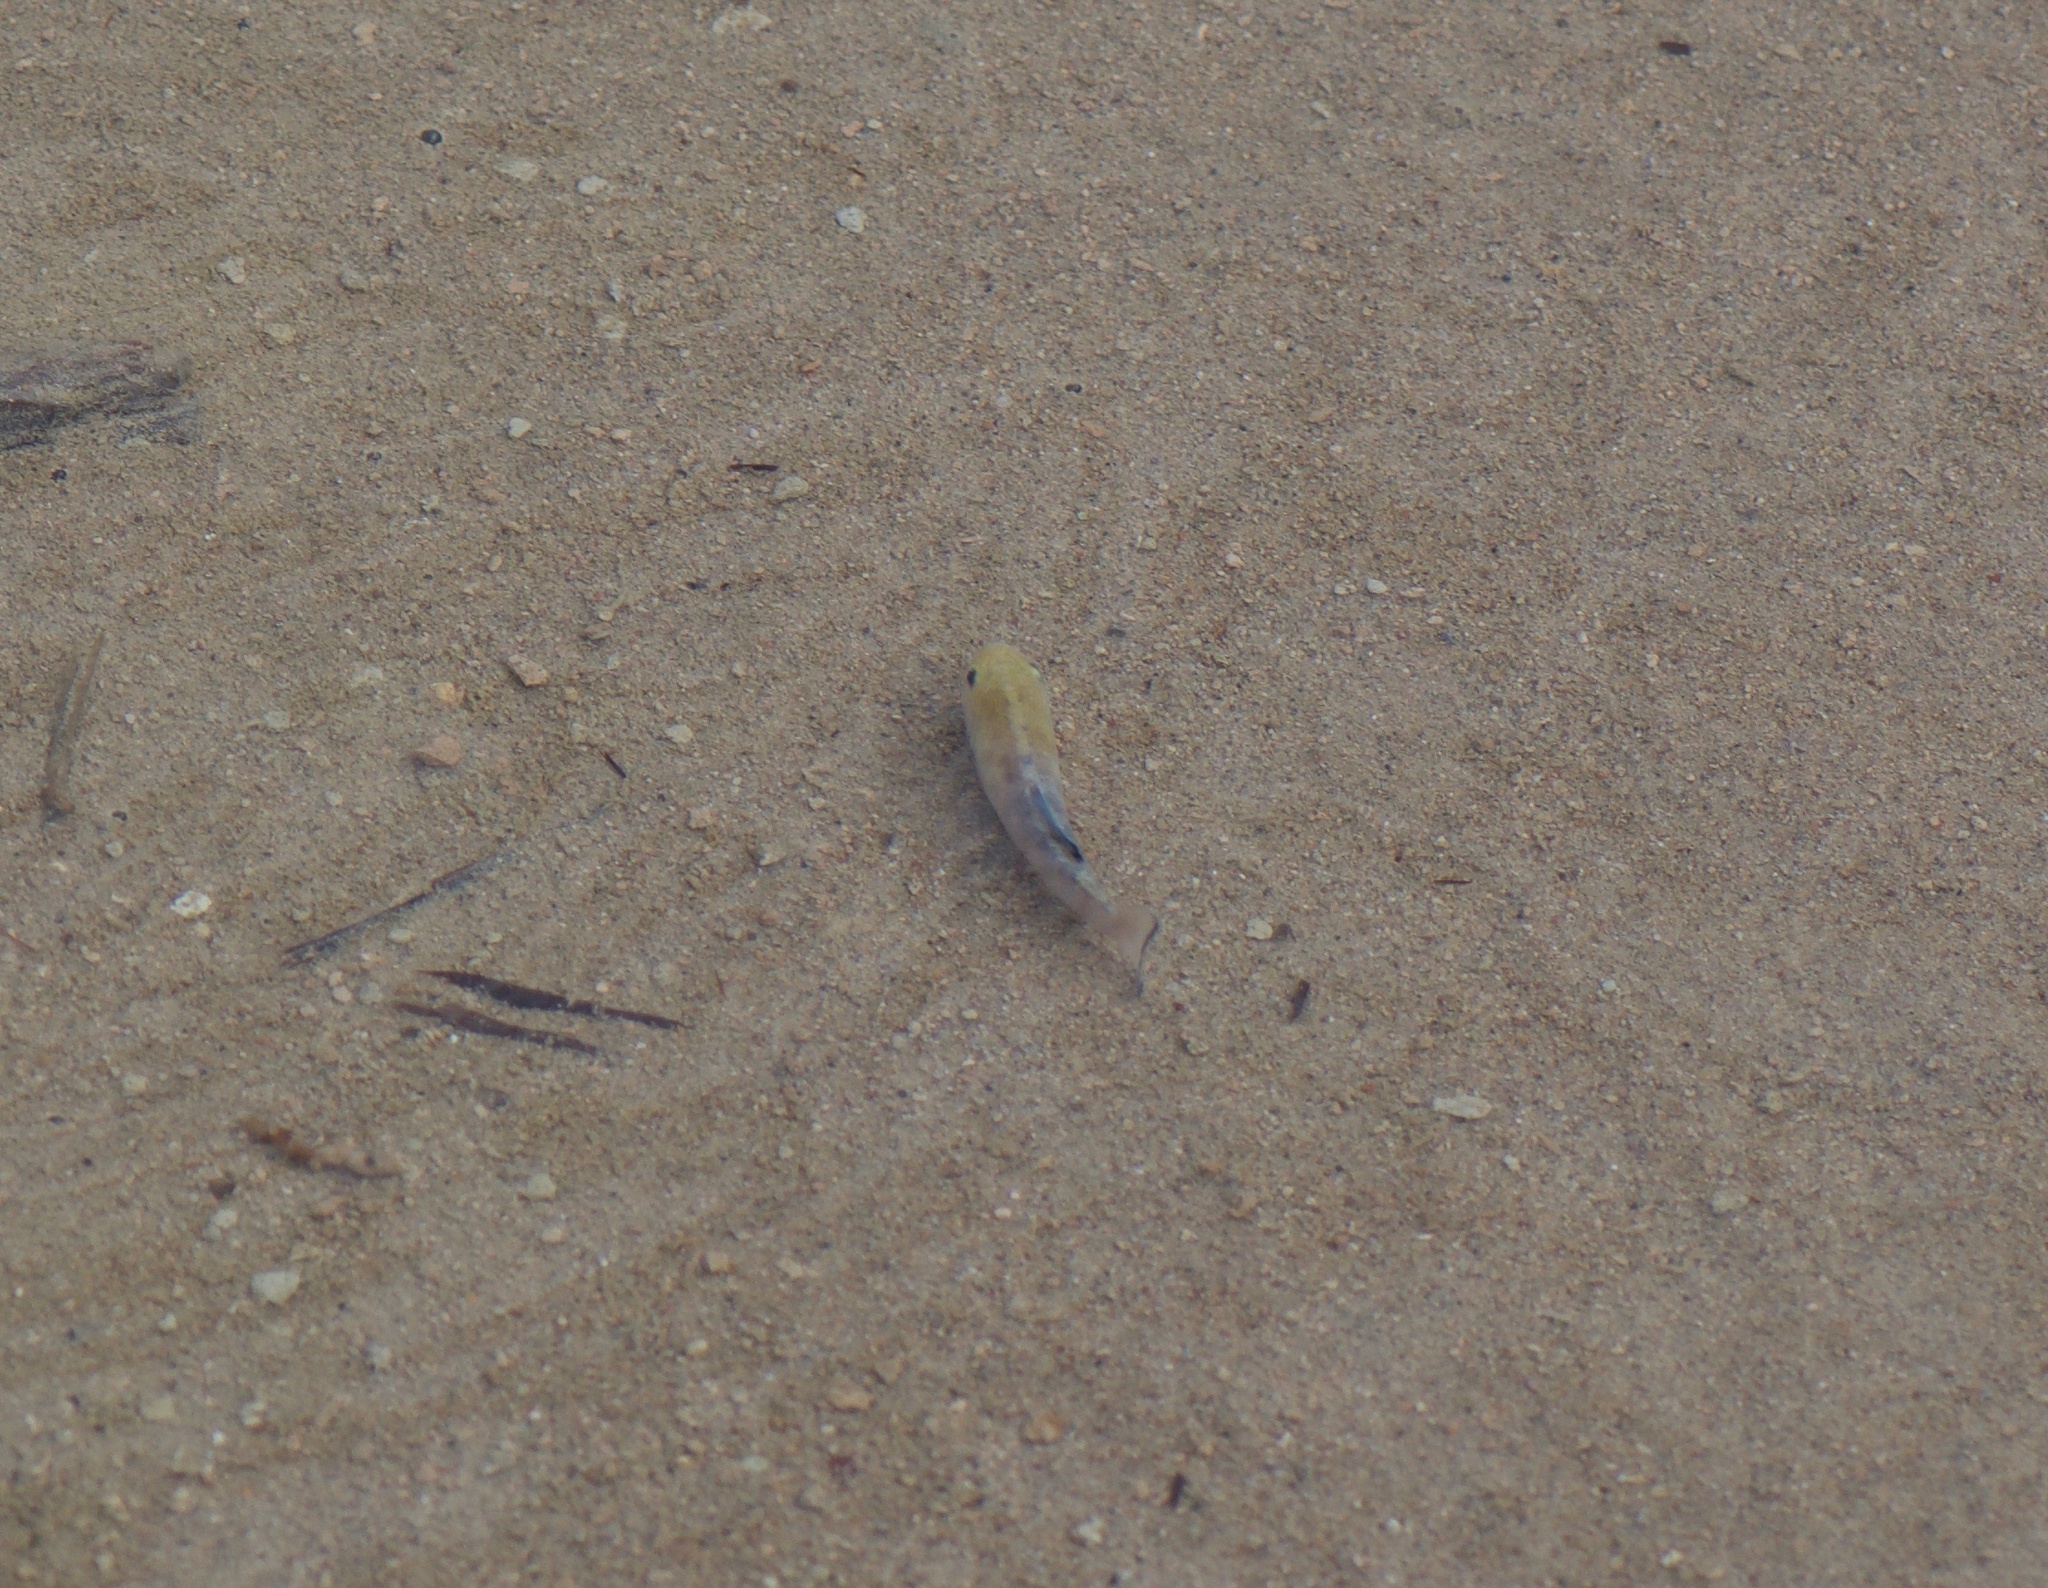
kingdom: Animalia
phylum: Chordata
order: Cyprinodontiformes
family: Cyprinodontidae
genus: Cyprinodon
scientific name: Cyprinodon salinus
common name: Cottonball marsh pupfish
